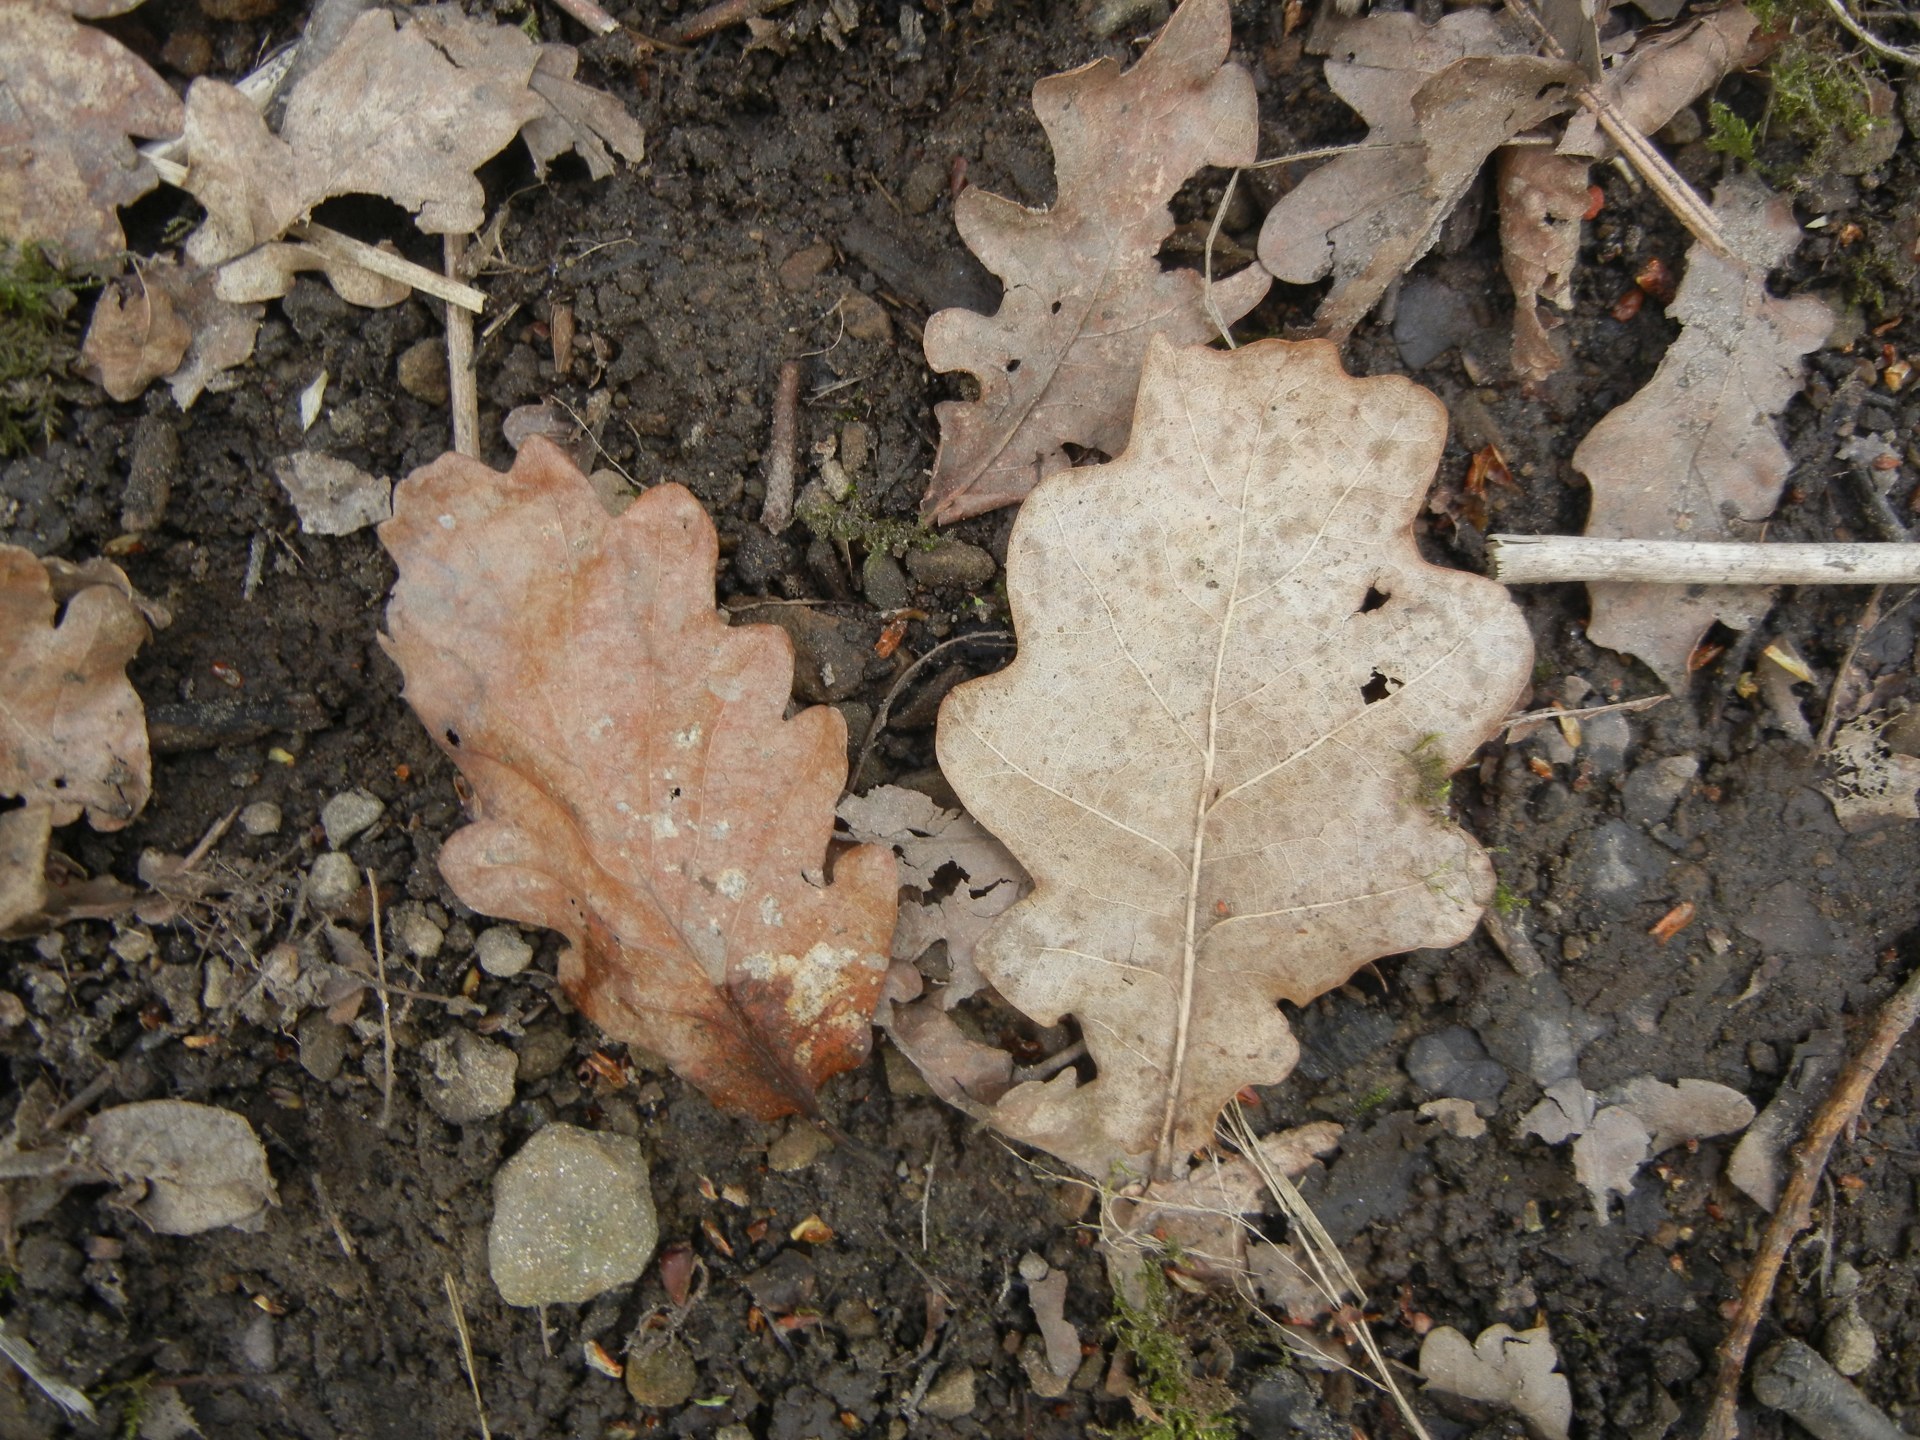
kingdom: Plantae
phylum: Tracheophyta
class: Magnoliopsida
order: Fagales
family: Fagaceae
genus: Quercus
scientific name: Quercus robur
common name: Pedunculate oak
